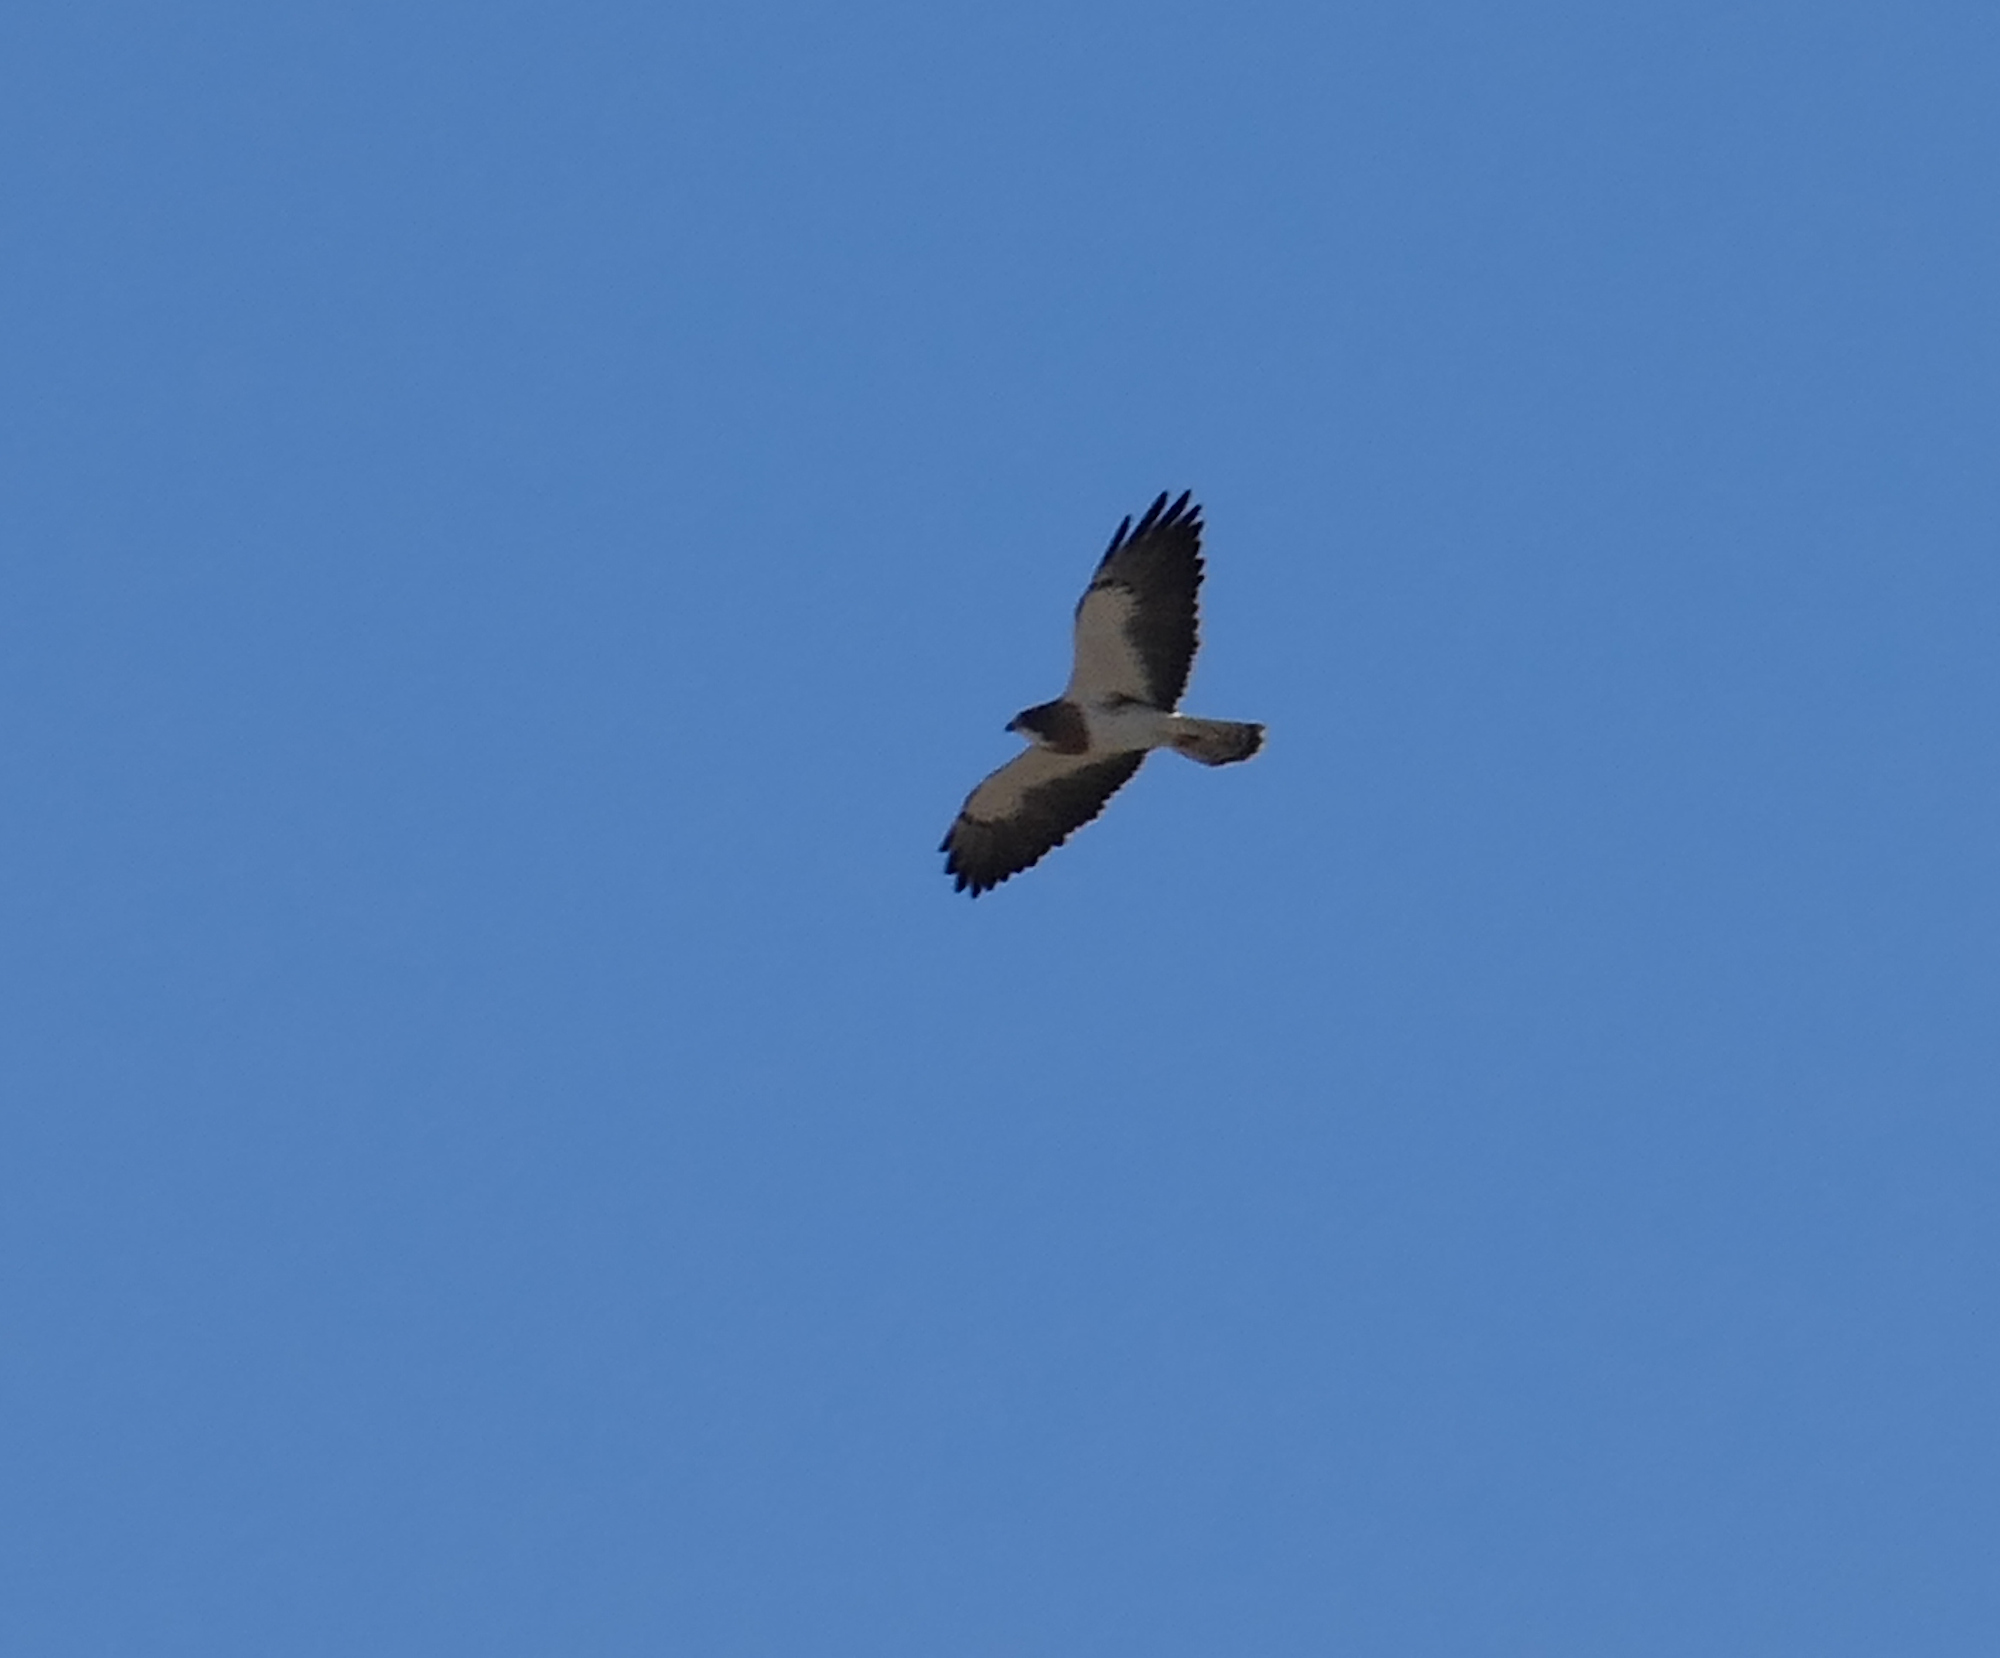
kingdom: Animalia
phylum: Chordata
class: Aves
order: Accipitriformes
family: Accipitridae
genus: Buteo
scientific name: Buteo swainsoni
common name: Swainson's hawk
